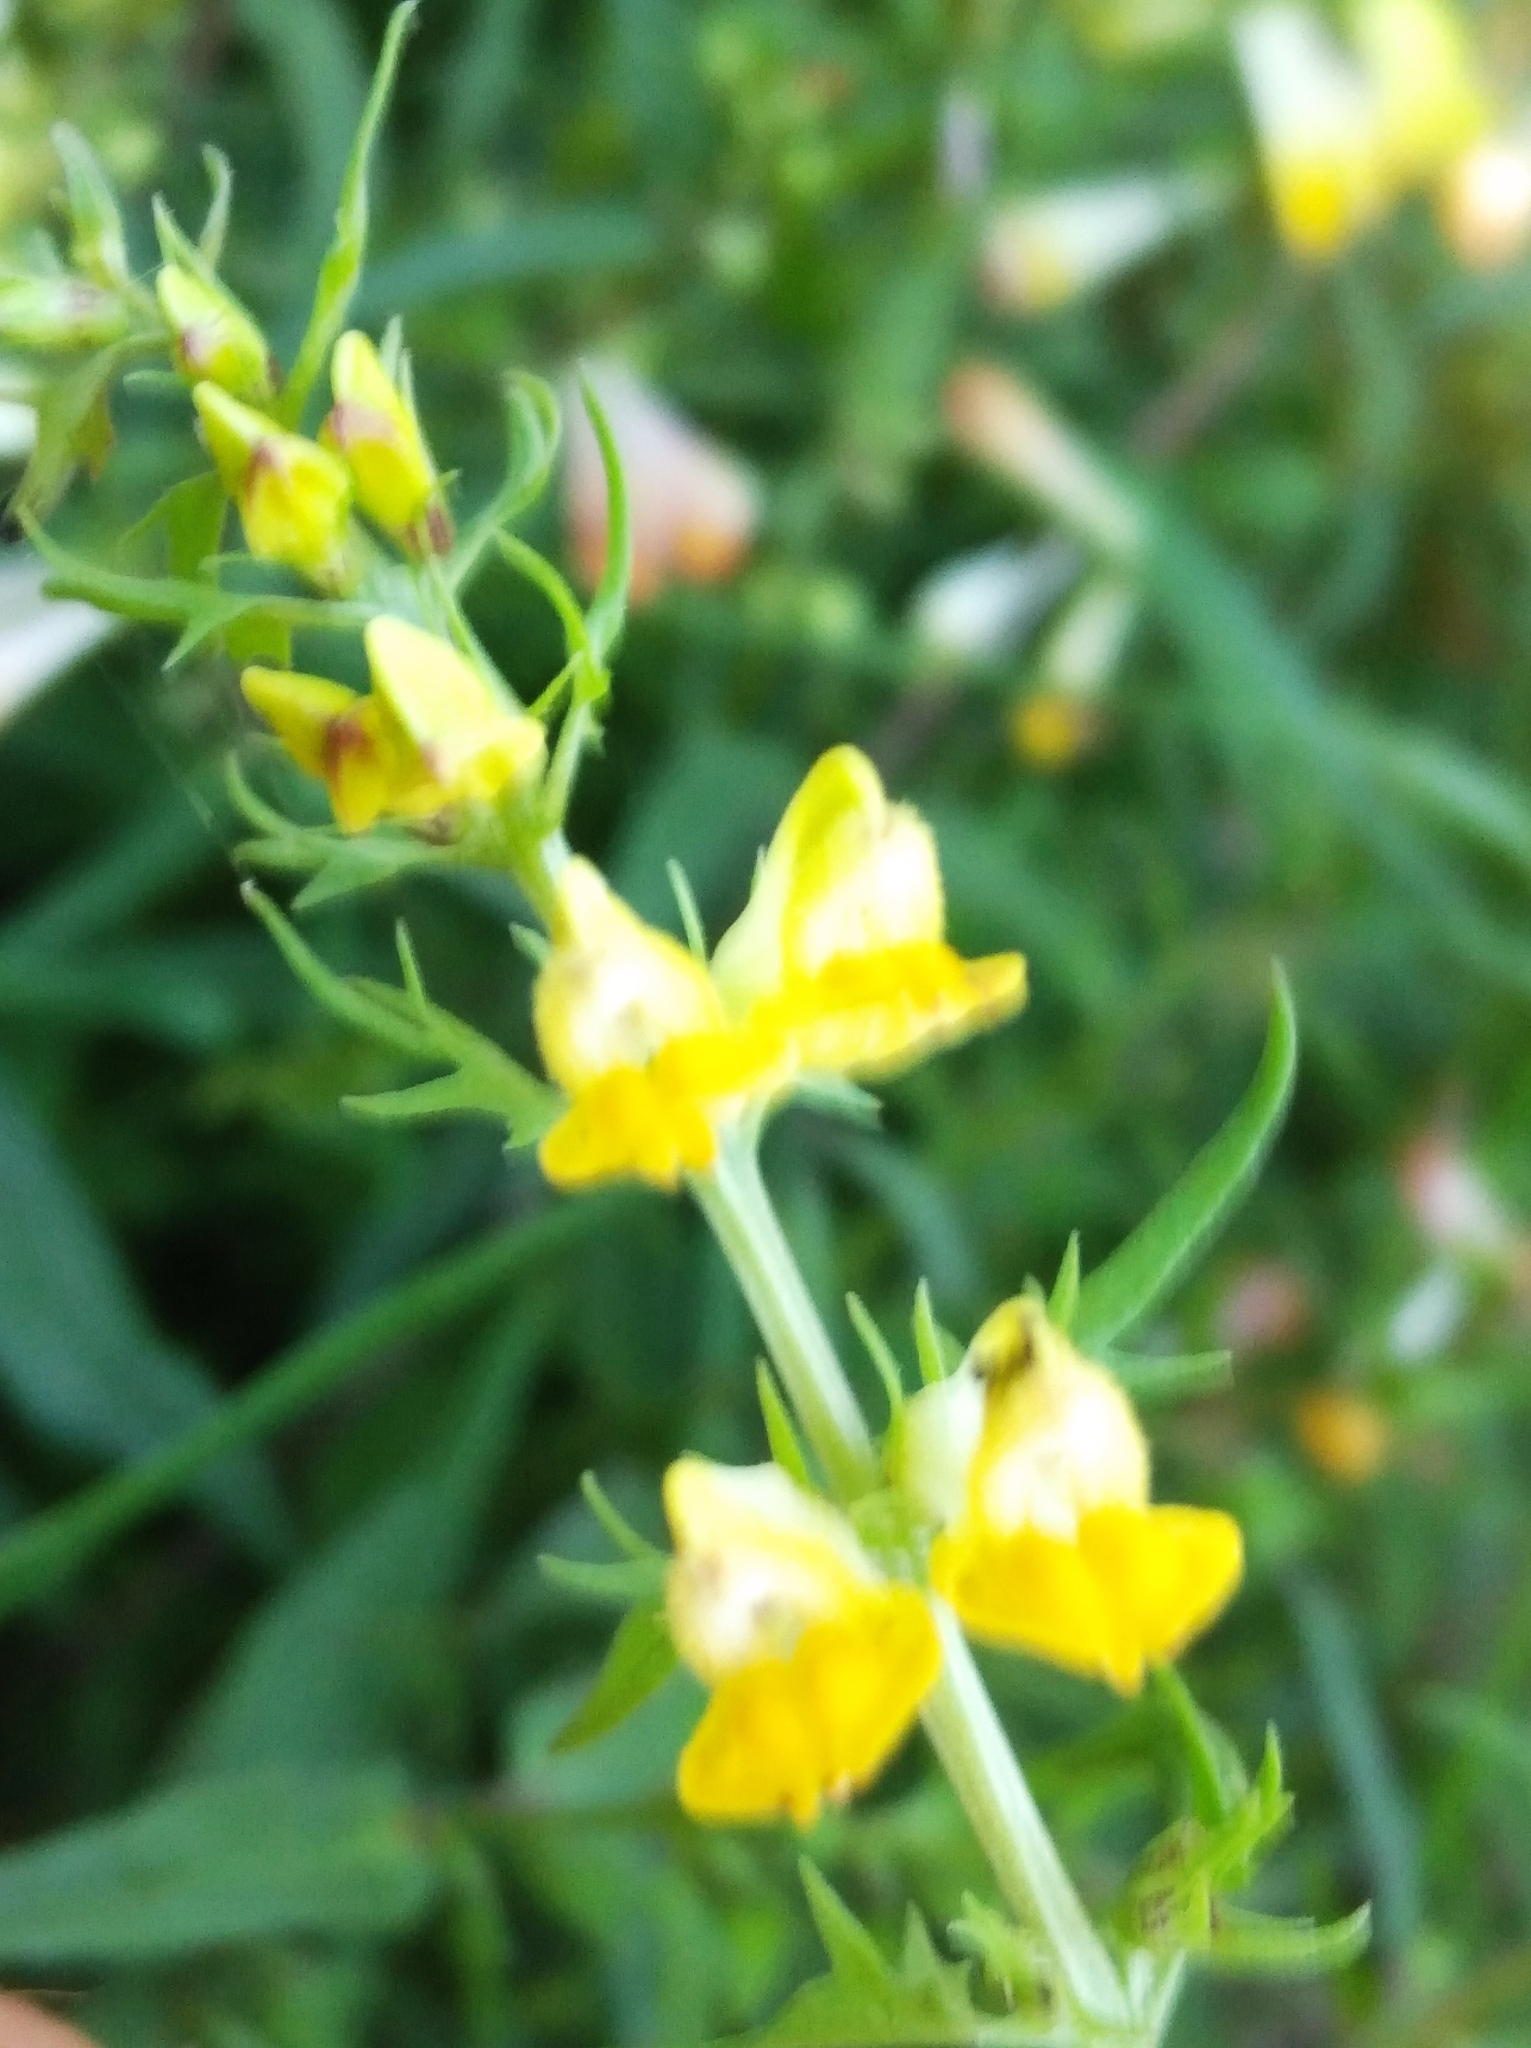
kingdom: Plantae
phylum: Tracheophyta
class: Magnoliopsida
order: Lamiales
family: Orobanchaceae
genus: Melampyrum
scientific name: Melampyrum pratense
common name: Common cow-wheat
